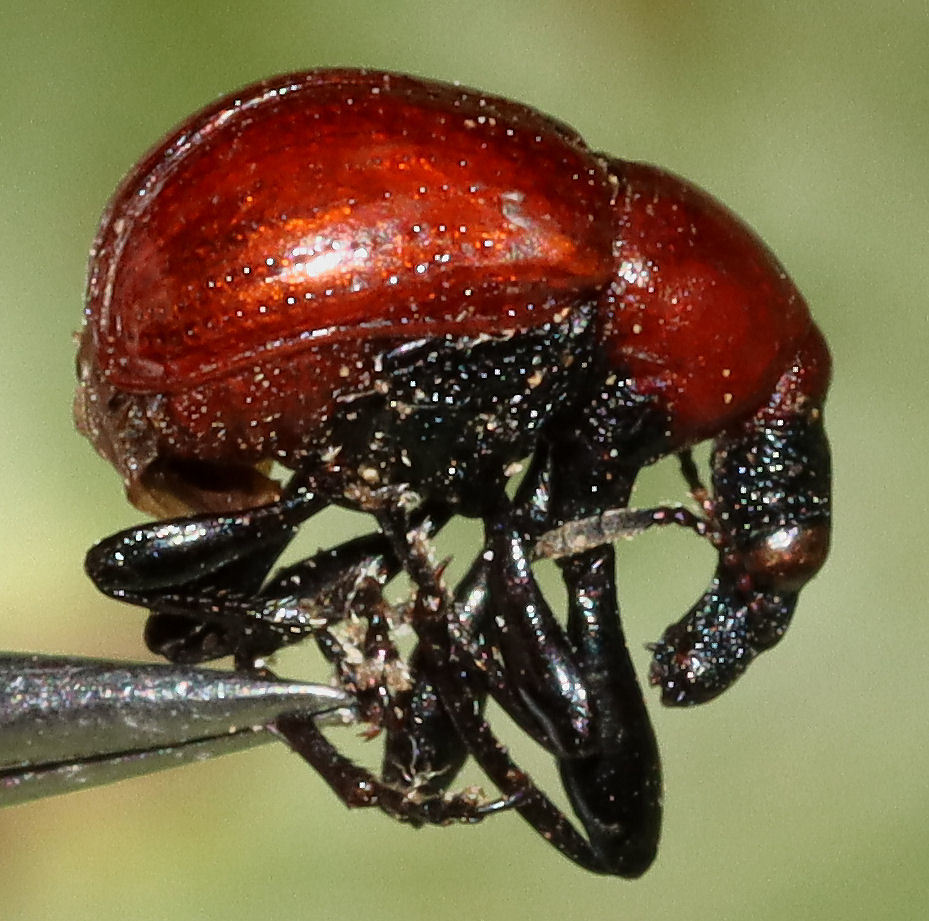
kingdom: Animalia
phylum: Arthropoda
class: Insecta
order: Coleoptera
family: Attelabidae
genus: Homoeolabus
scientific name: Homoeolabus analis
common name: Oak leaf rolling weevil
